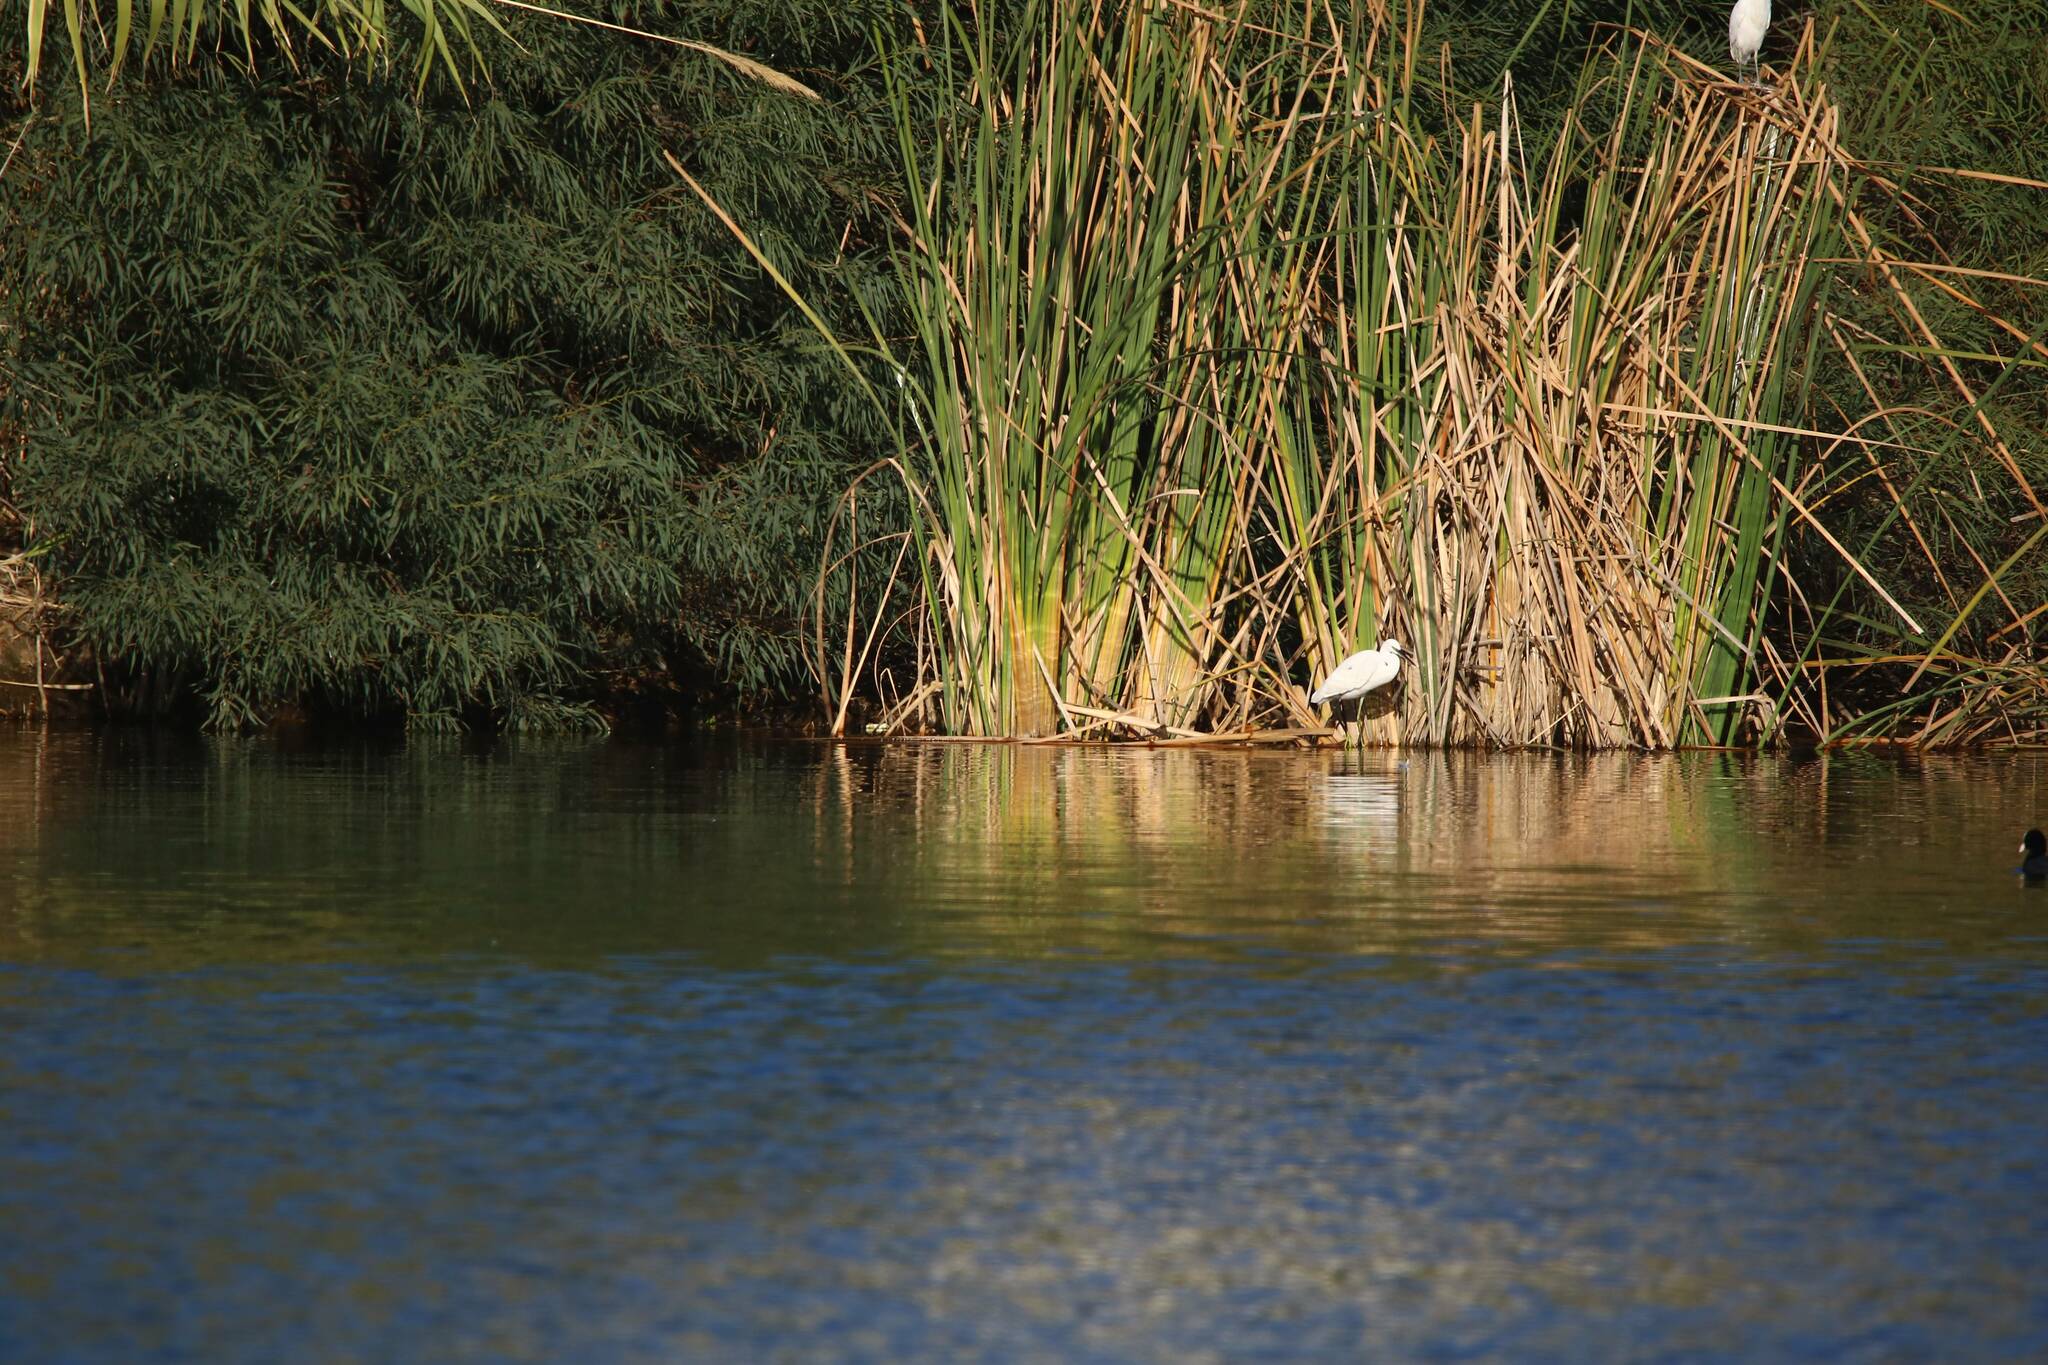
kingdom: Animalia
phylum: Chordata
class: Aves
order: Pelecaniformes
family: Ardeidae
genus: Egretta
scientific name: Egretta garzetta
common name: Little egret
